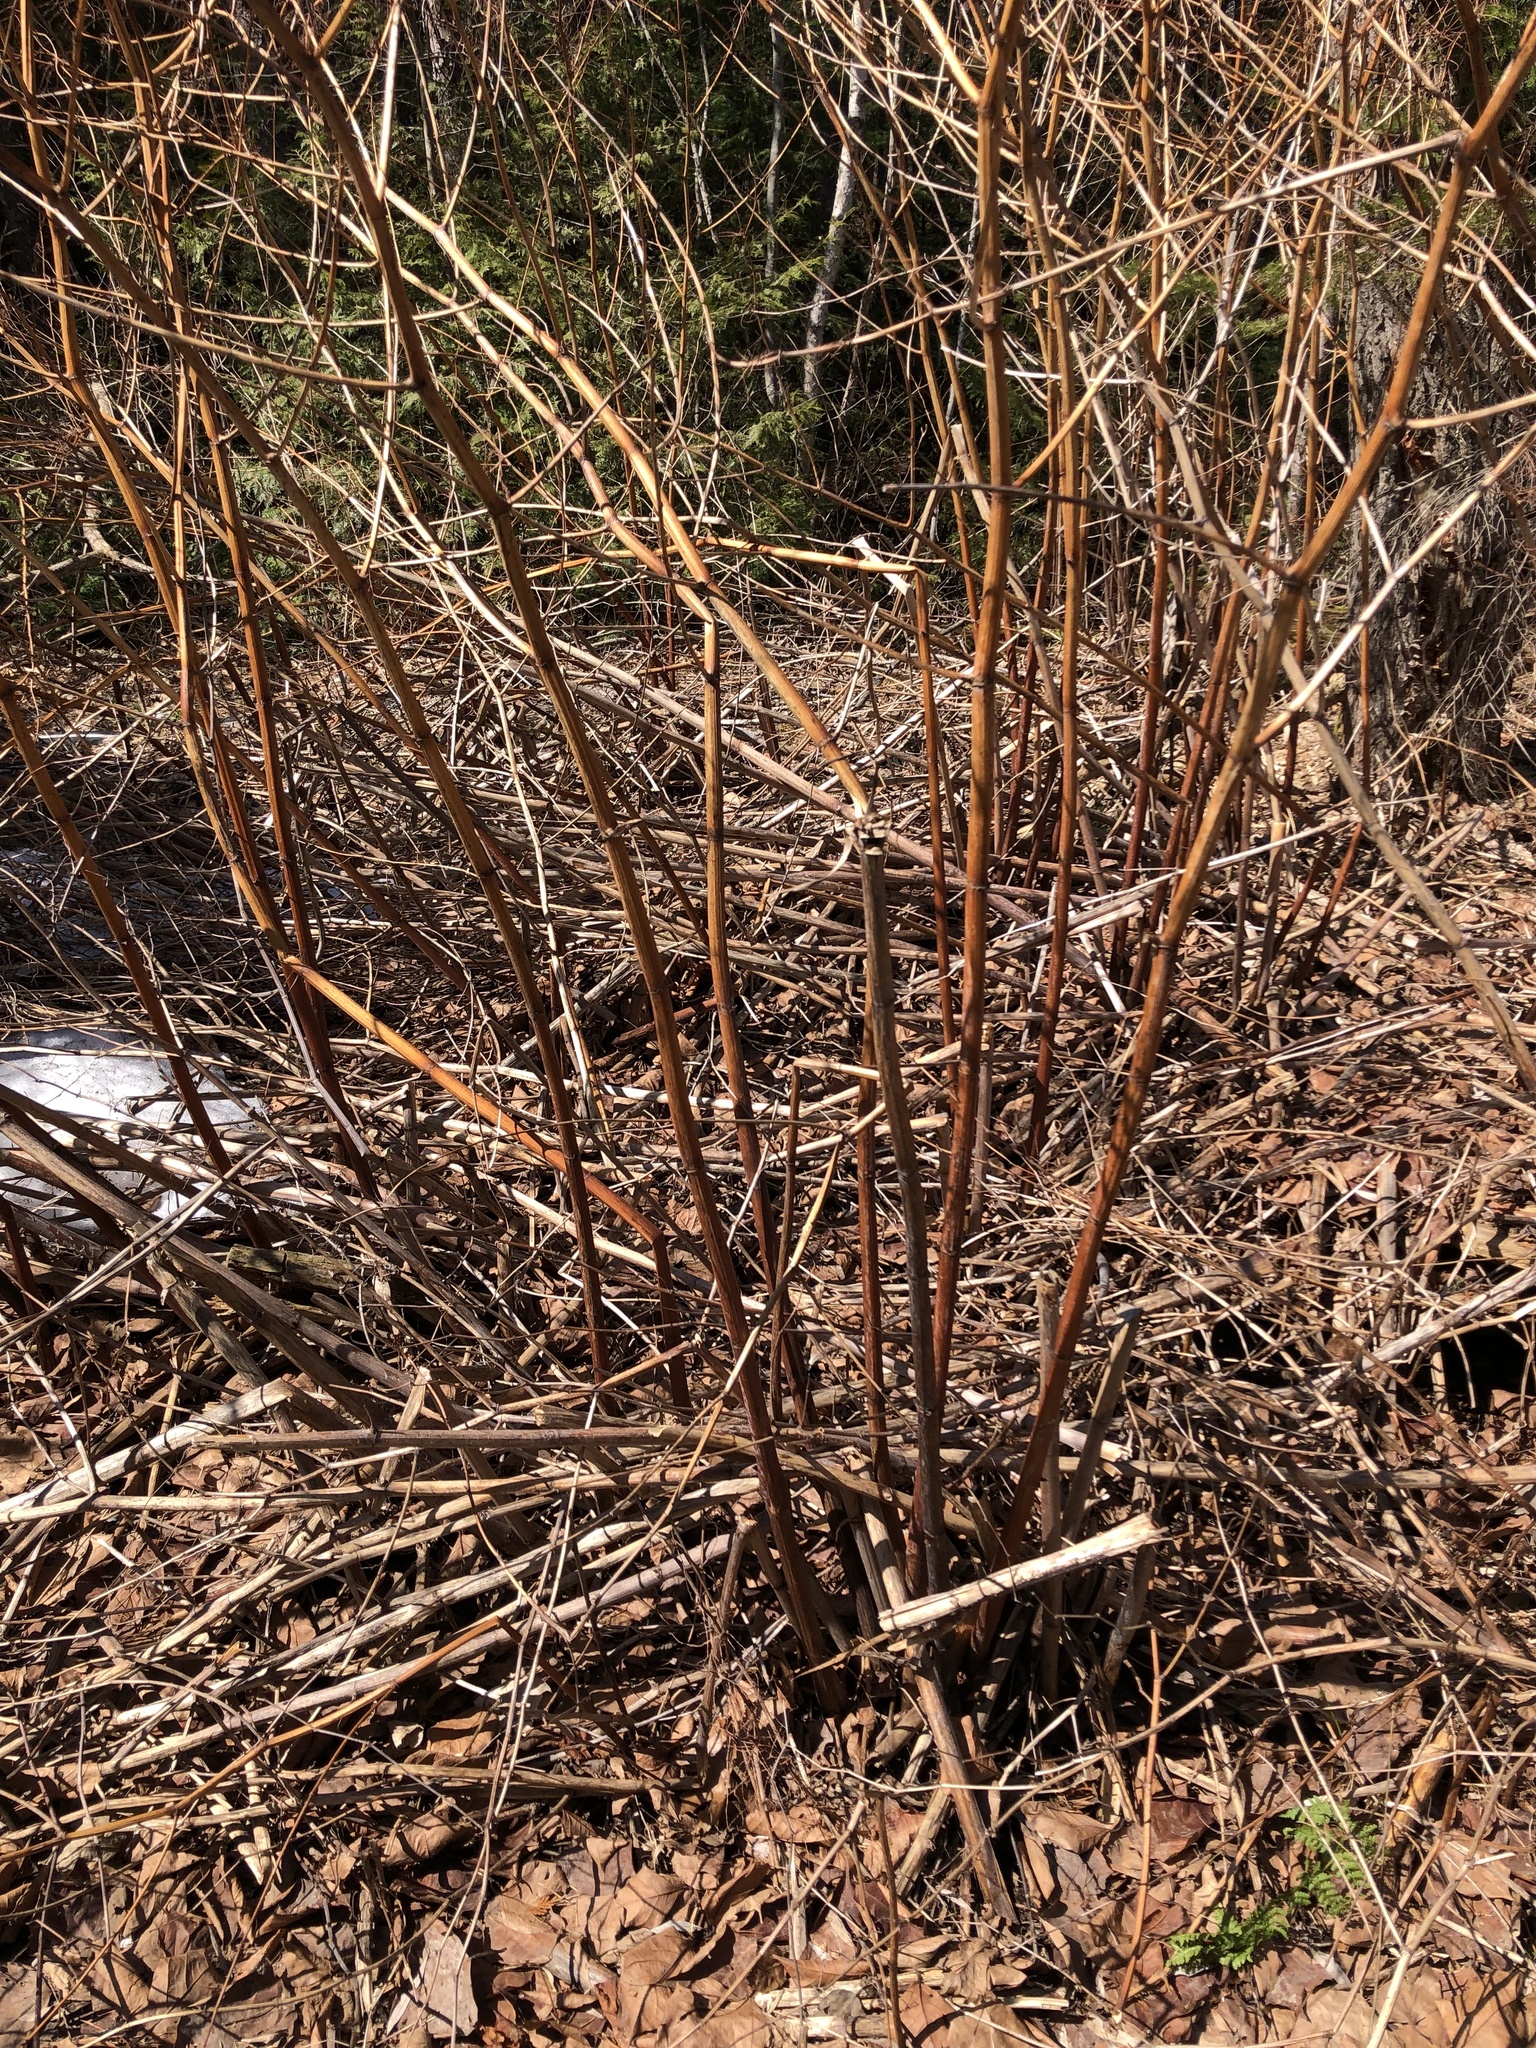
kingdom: Plantae
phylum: Tracheophyta
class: Magnoliopsida
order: Caryophyllales
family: Polygonaceae
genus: Reynoutria
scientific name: Reynoutria japonica
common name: Japanese knotweed
